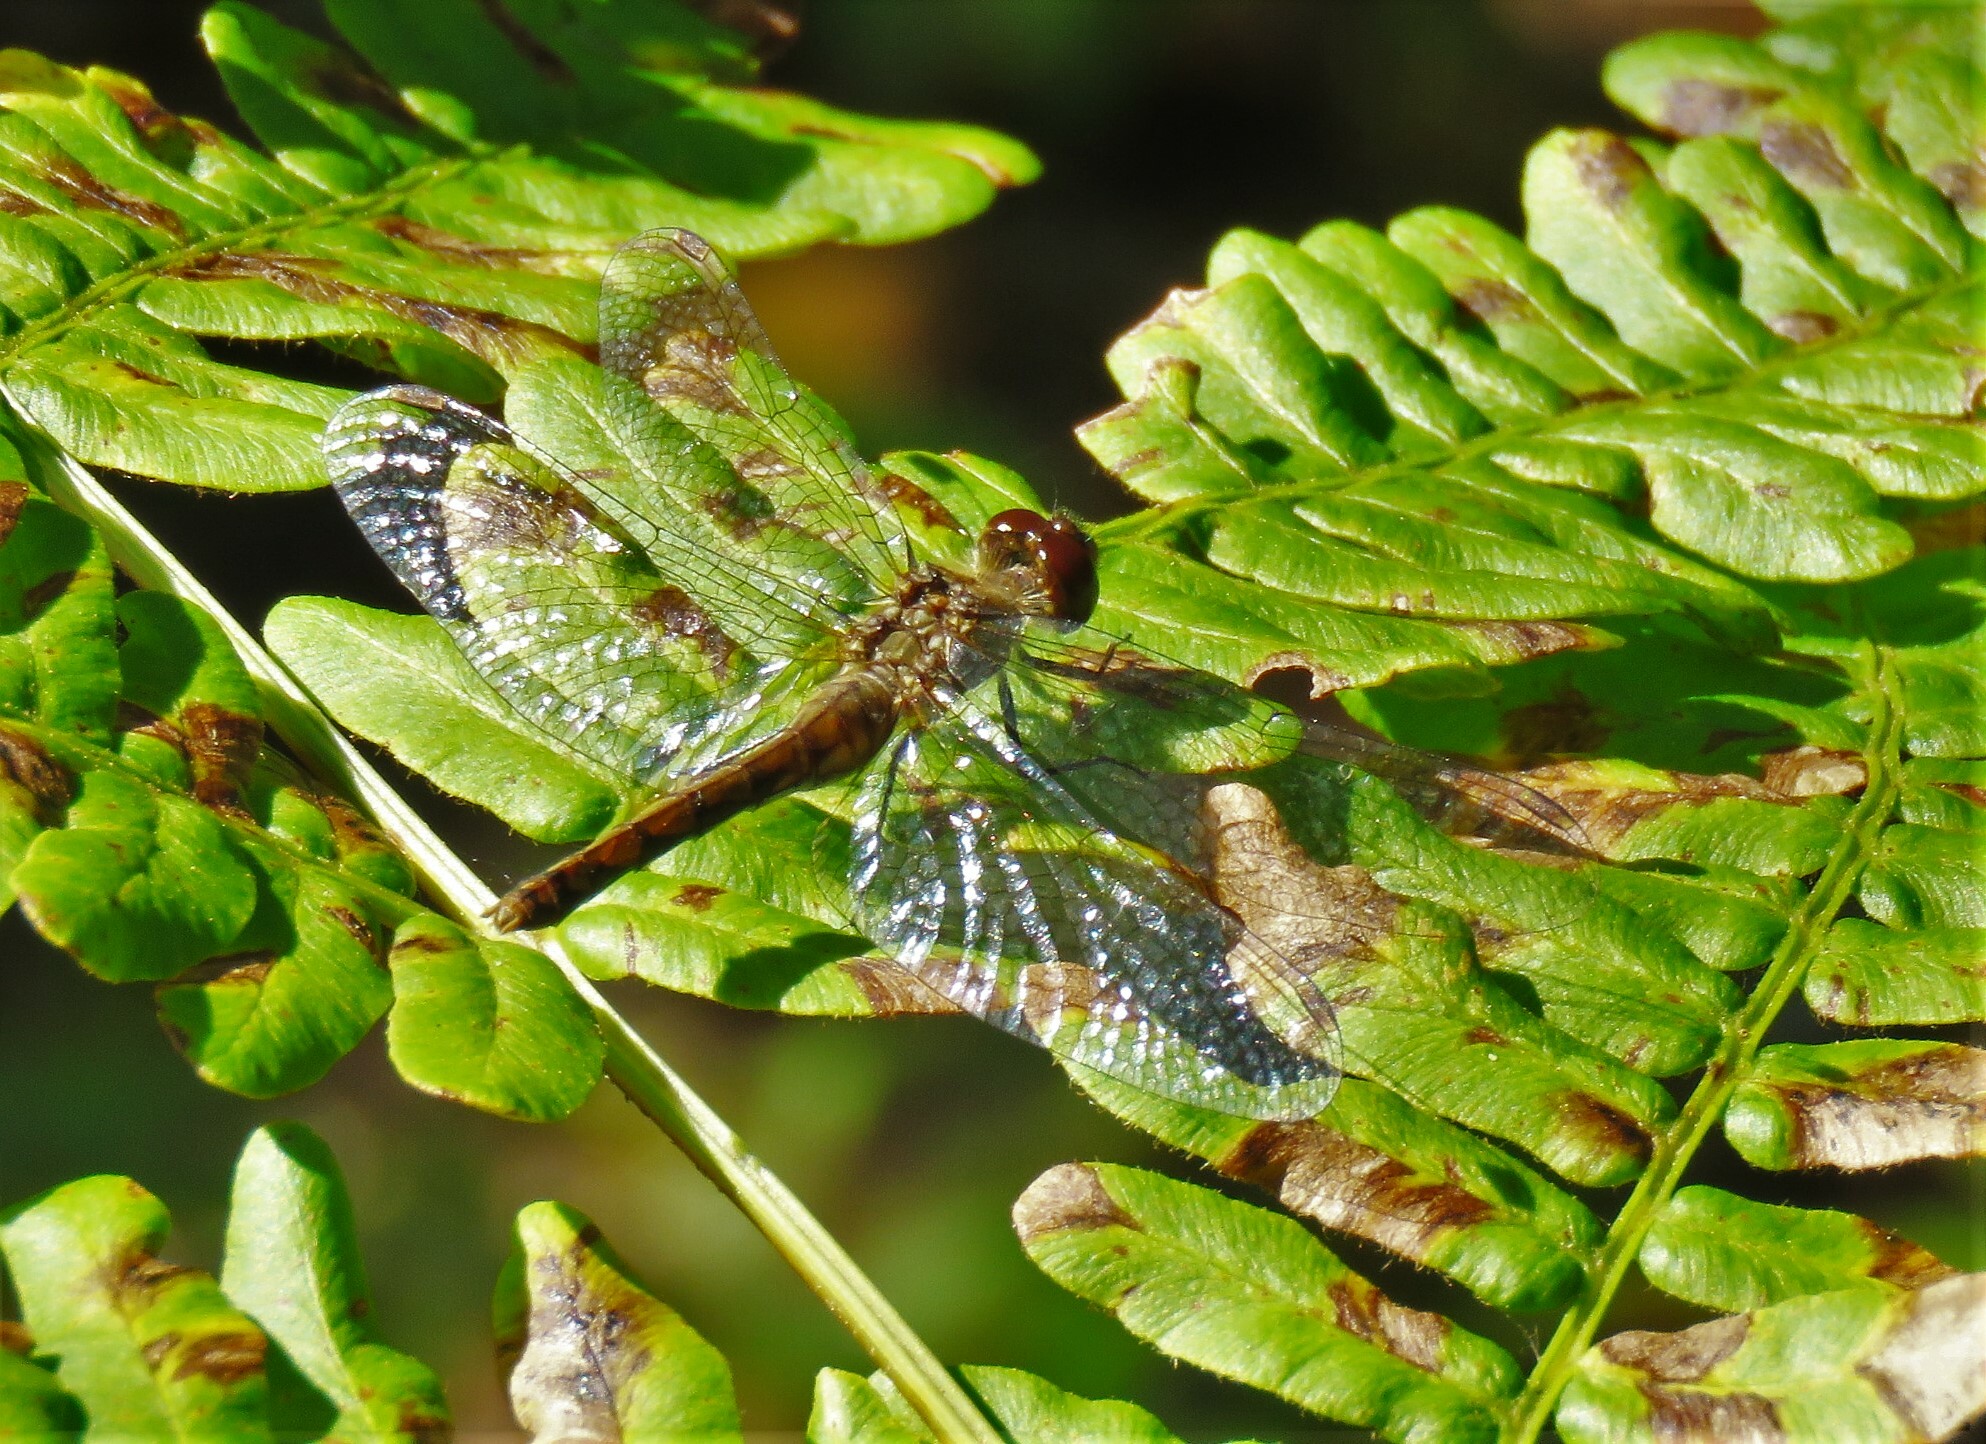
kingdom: Animalia
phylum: Arthropoda
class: Insecta
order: Odonata
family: Libellulidae
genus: Sympetrum
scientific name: Sympetrum vicinum
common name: Autumn meadowhawk
